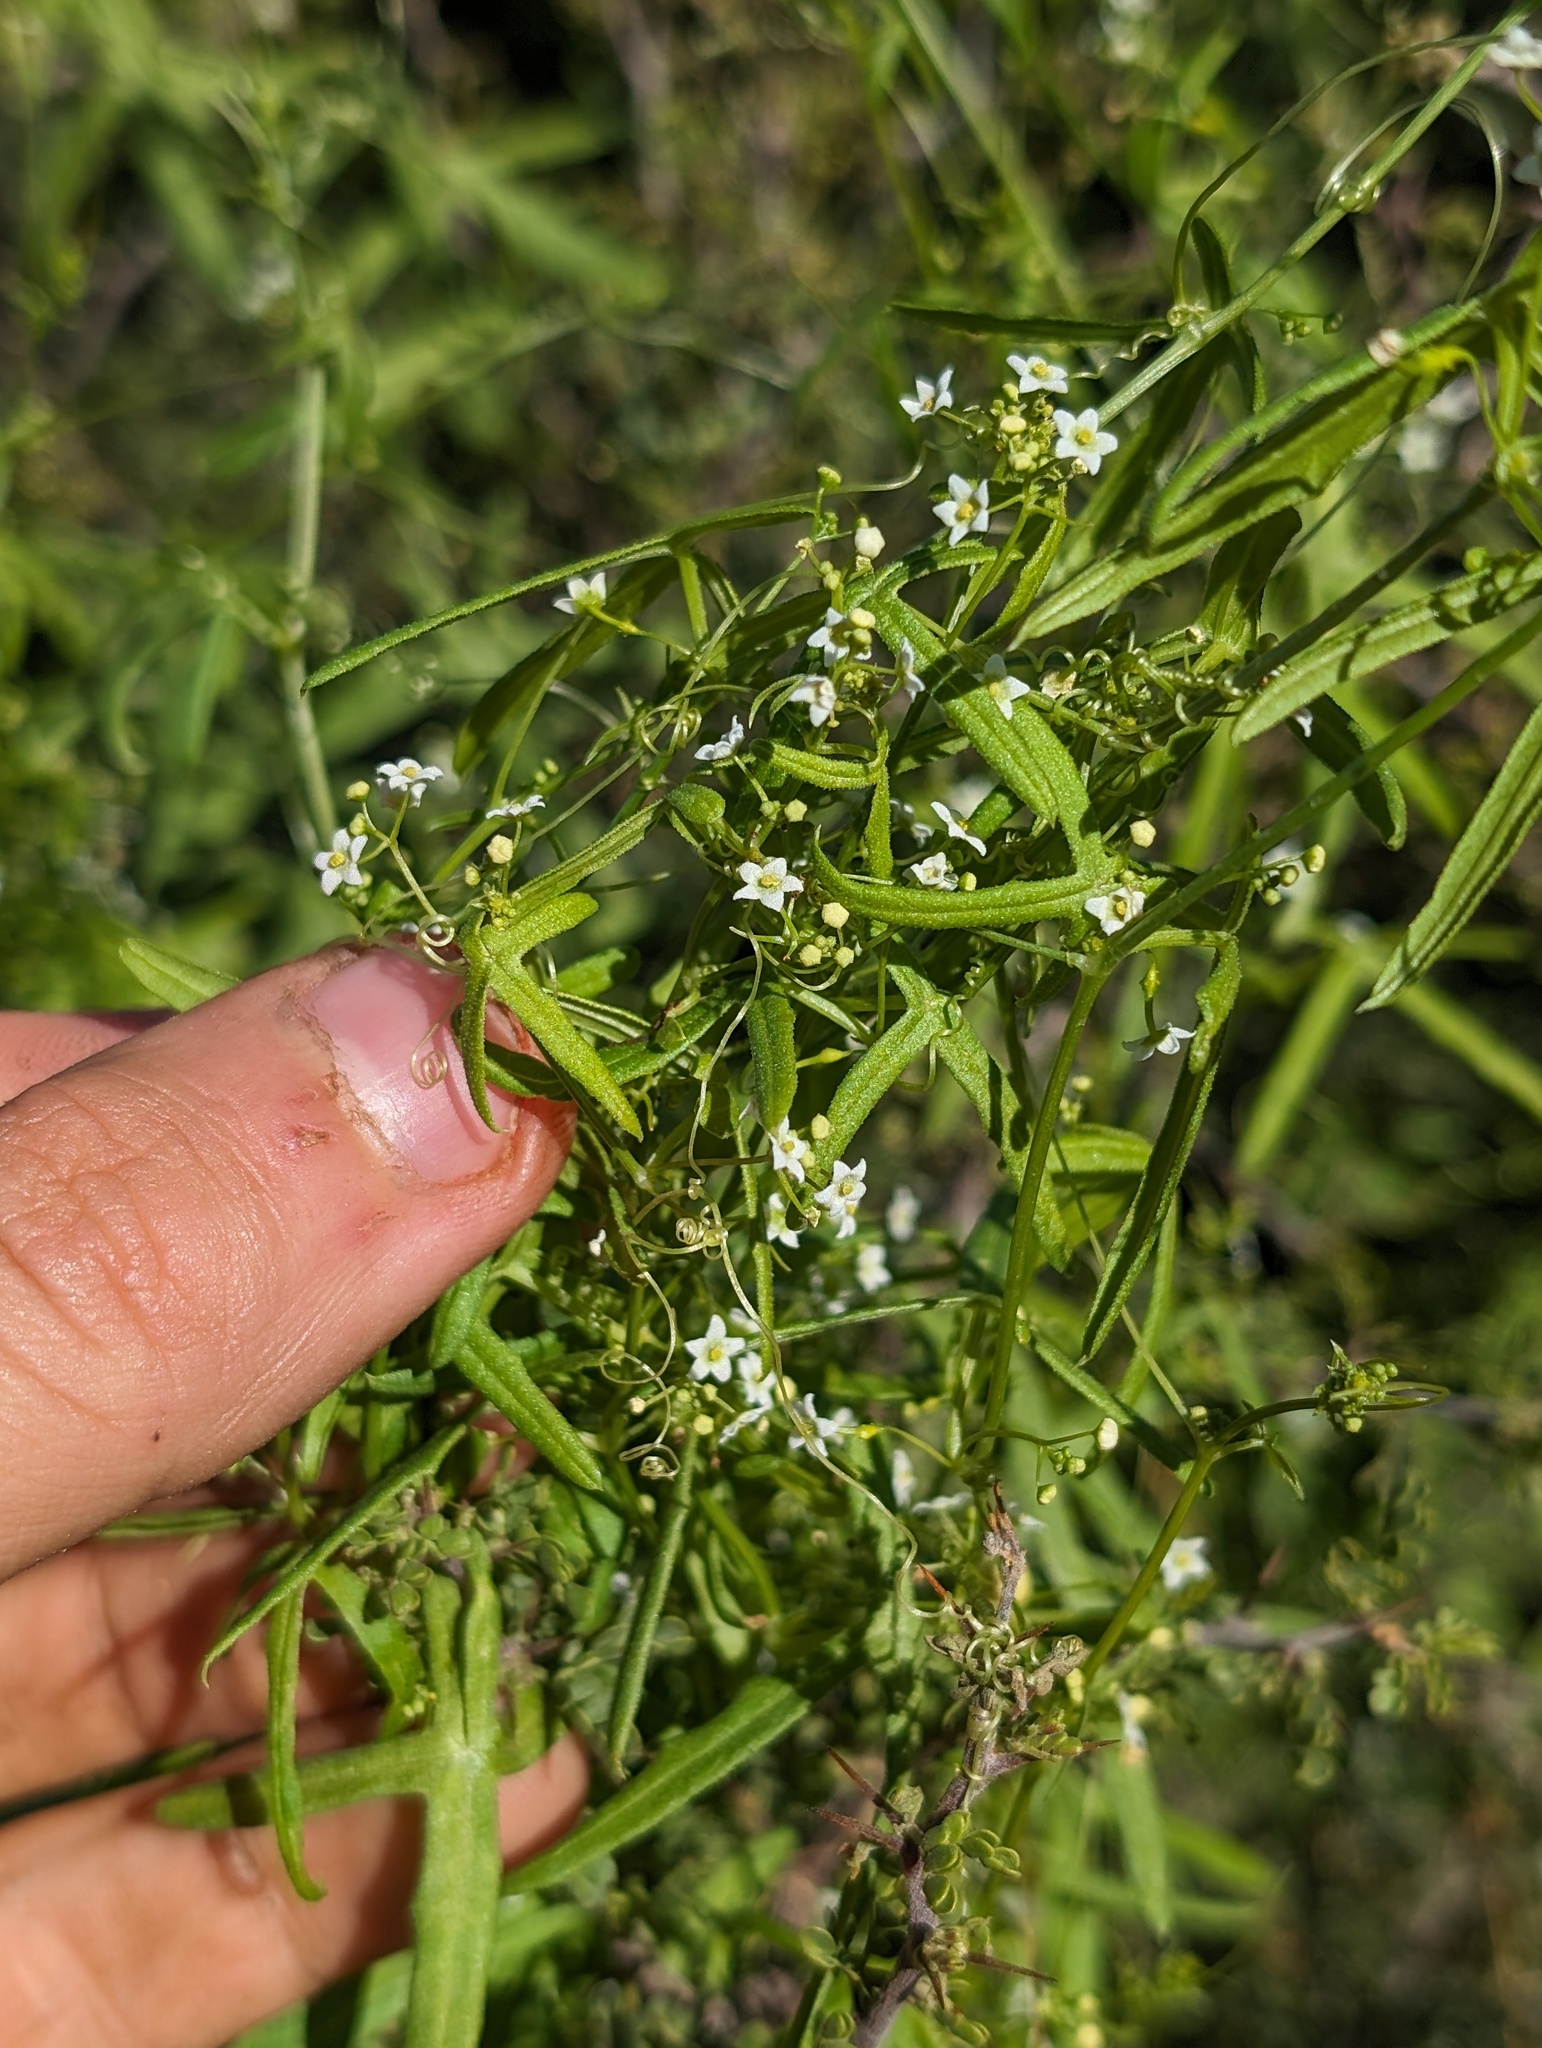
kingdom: Plantae
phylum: Tracheophyta
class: Magnoliopsida
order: Cucurbitales
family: Cucurbitaceae
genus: Echinopepon
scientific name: Echinopepon bigelovii
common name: Desert starvine
